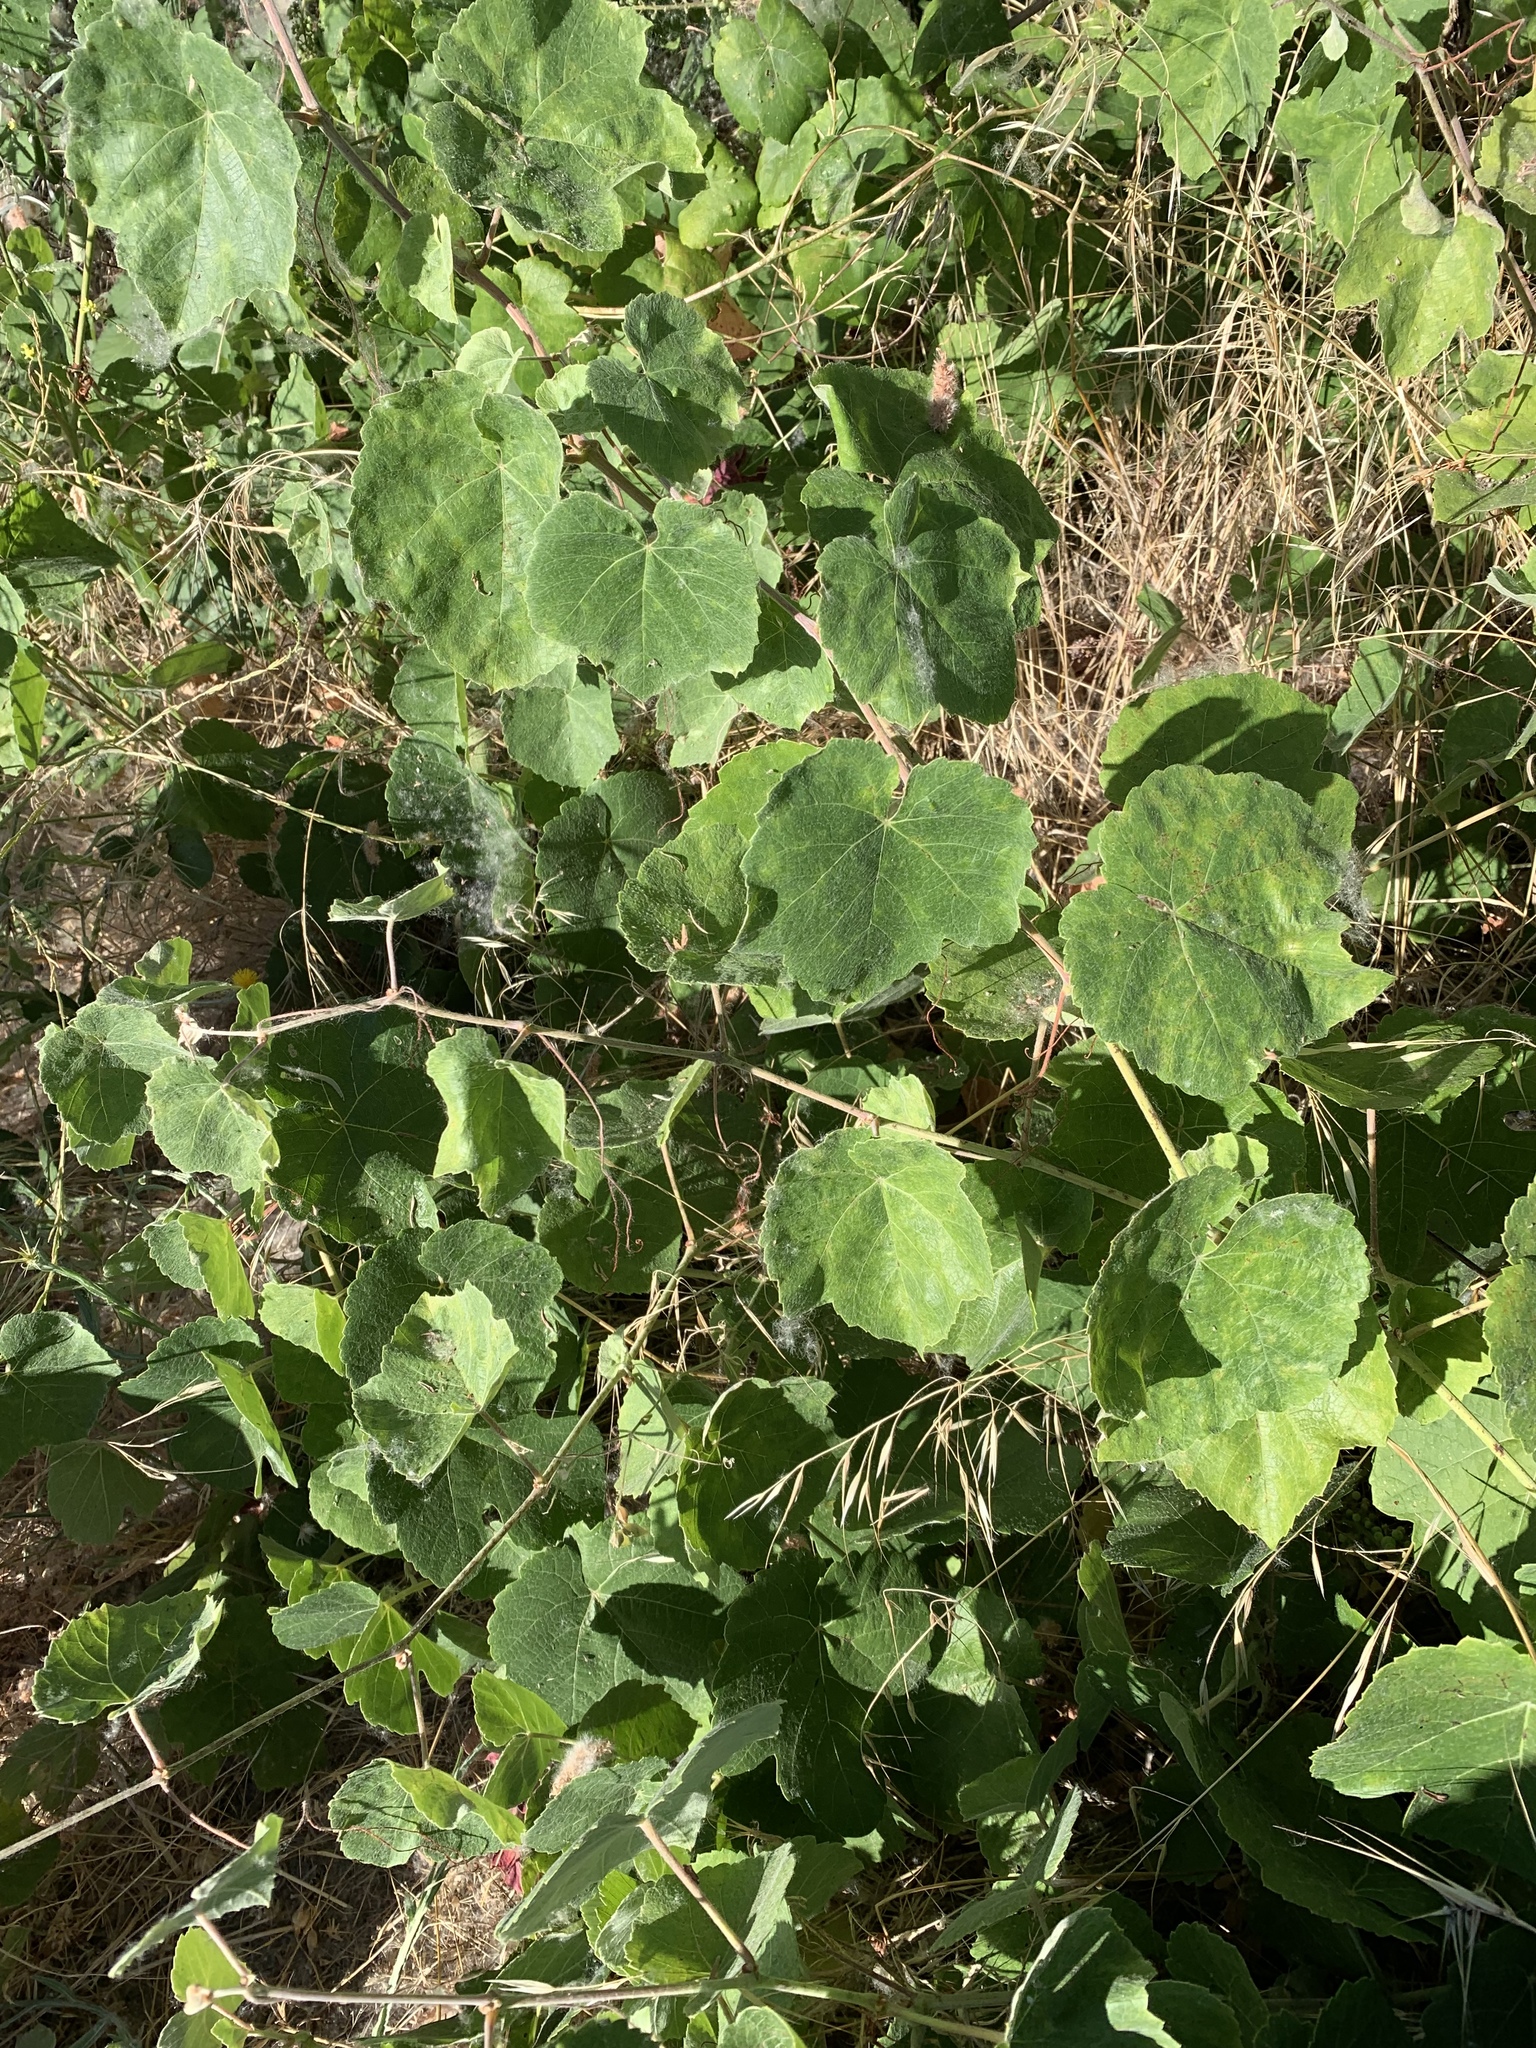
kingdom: Plantae
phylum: Tracheophyta
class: Magnoliopsida
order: Vitales
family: Vitaceae
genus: Vitis
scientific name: Vitis californica
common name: California wild grape
